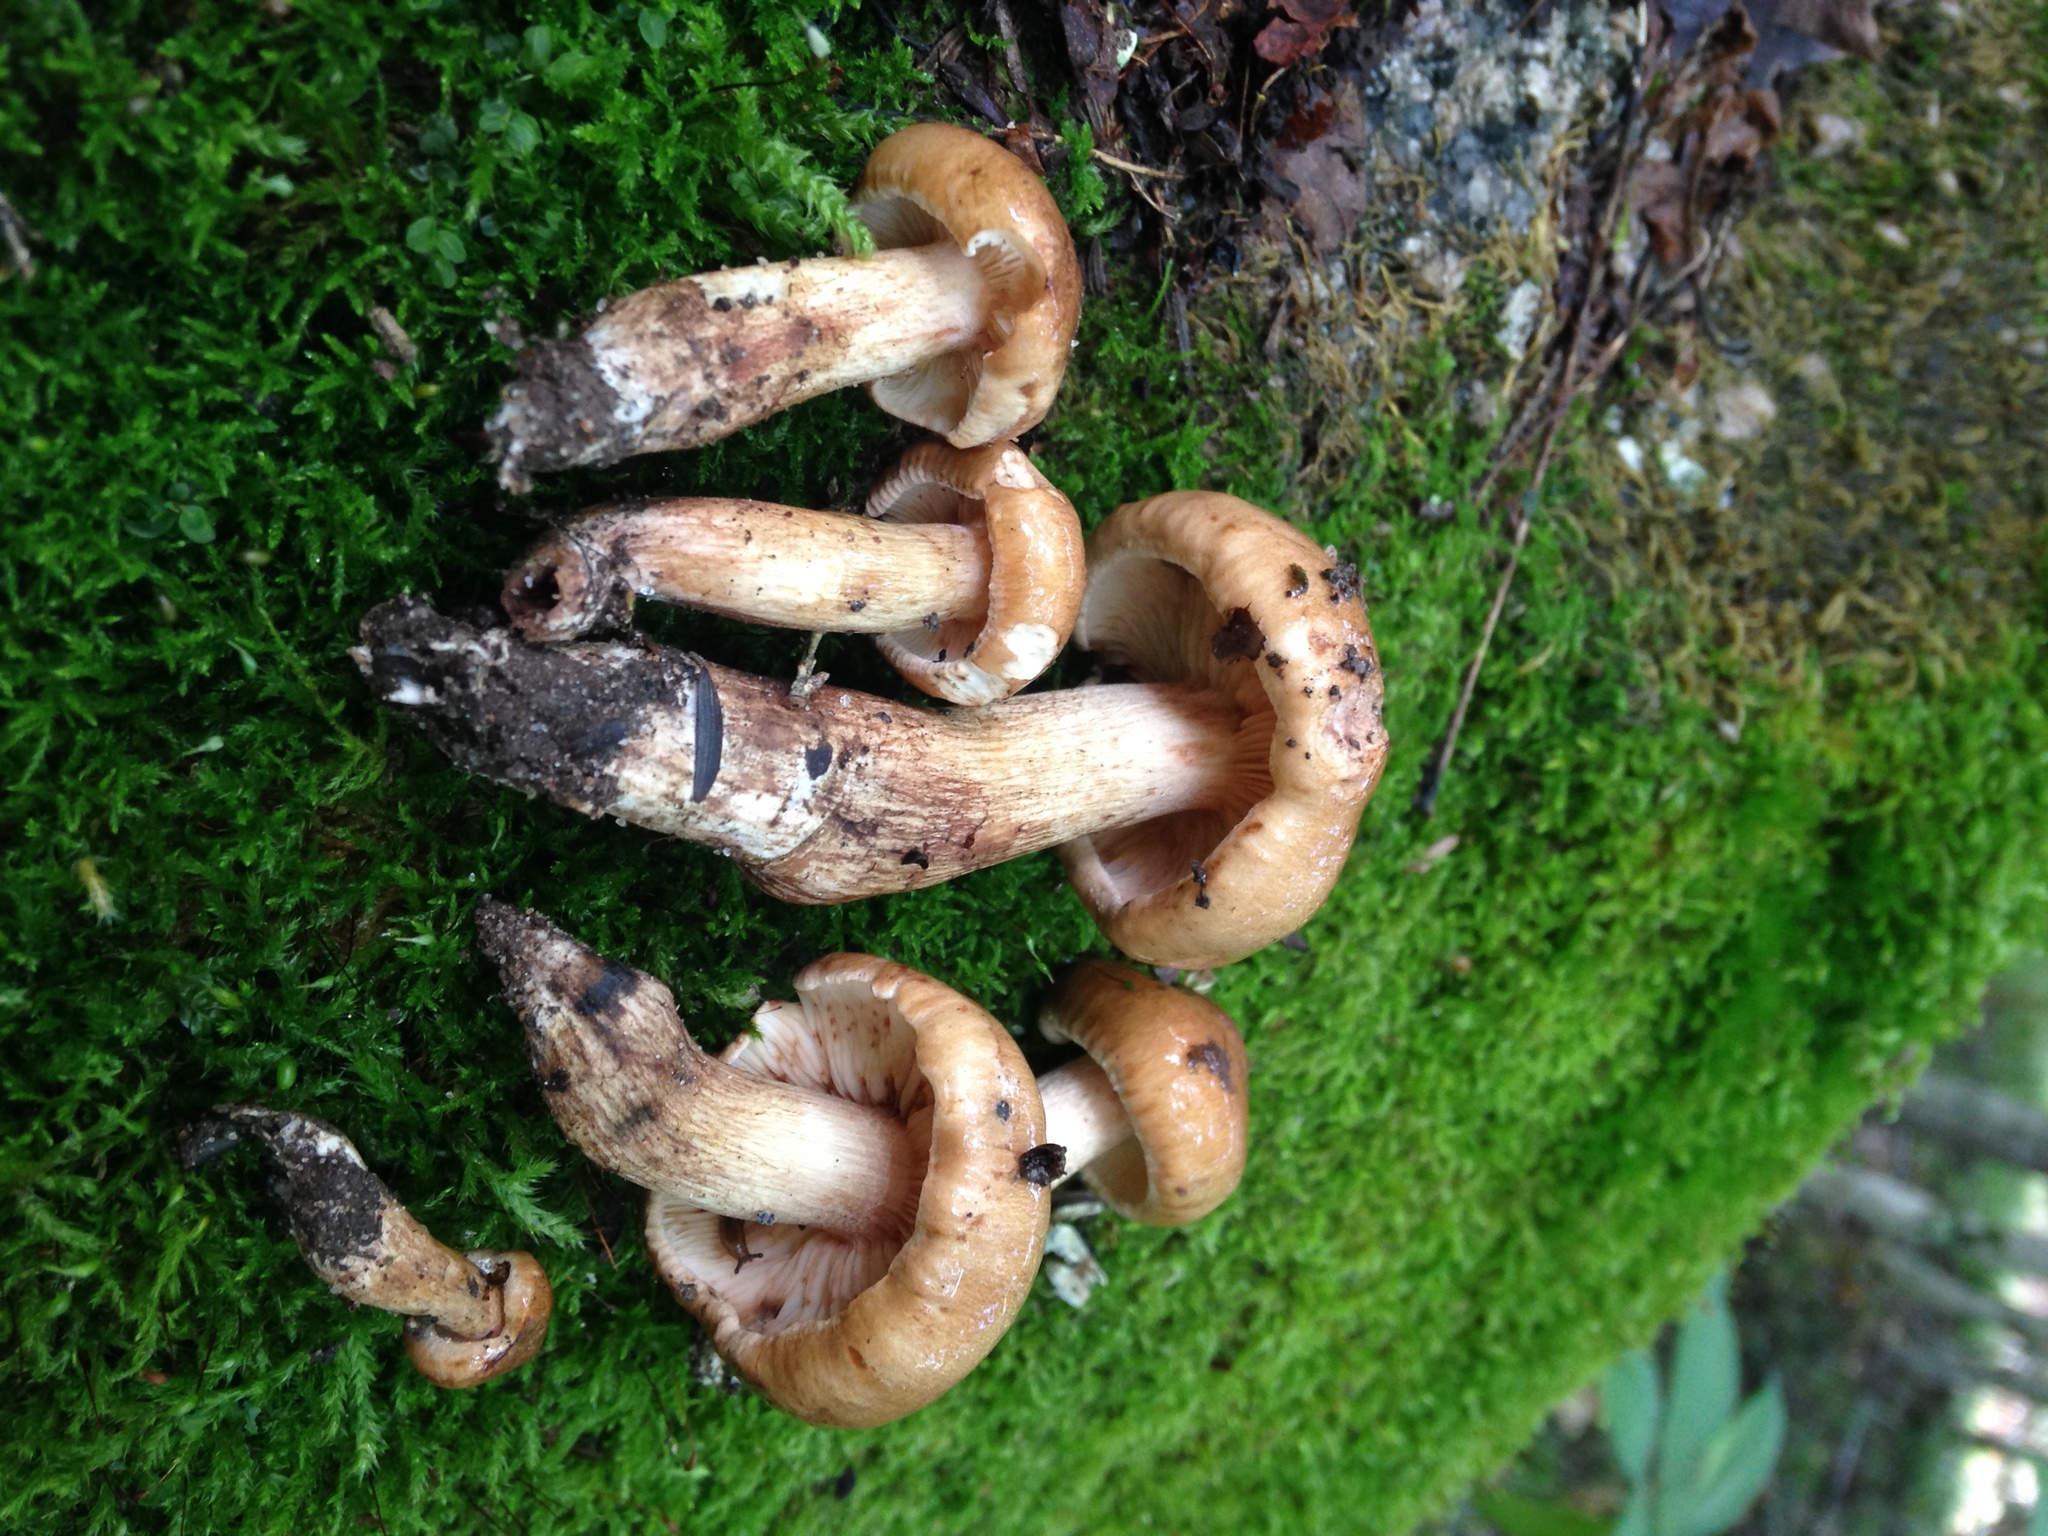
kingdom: Fungi
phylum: Basidiomycota
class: Agaricomycetes
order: Agaricales
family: Tricholomataceae
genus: Tricholoma
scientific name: Tricholoma ustale
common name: Burnt knight
